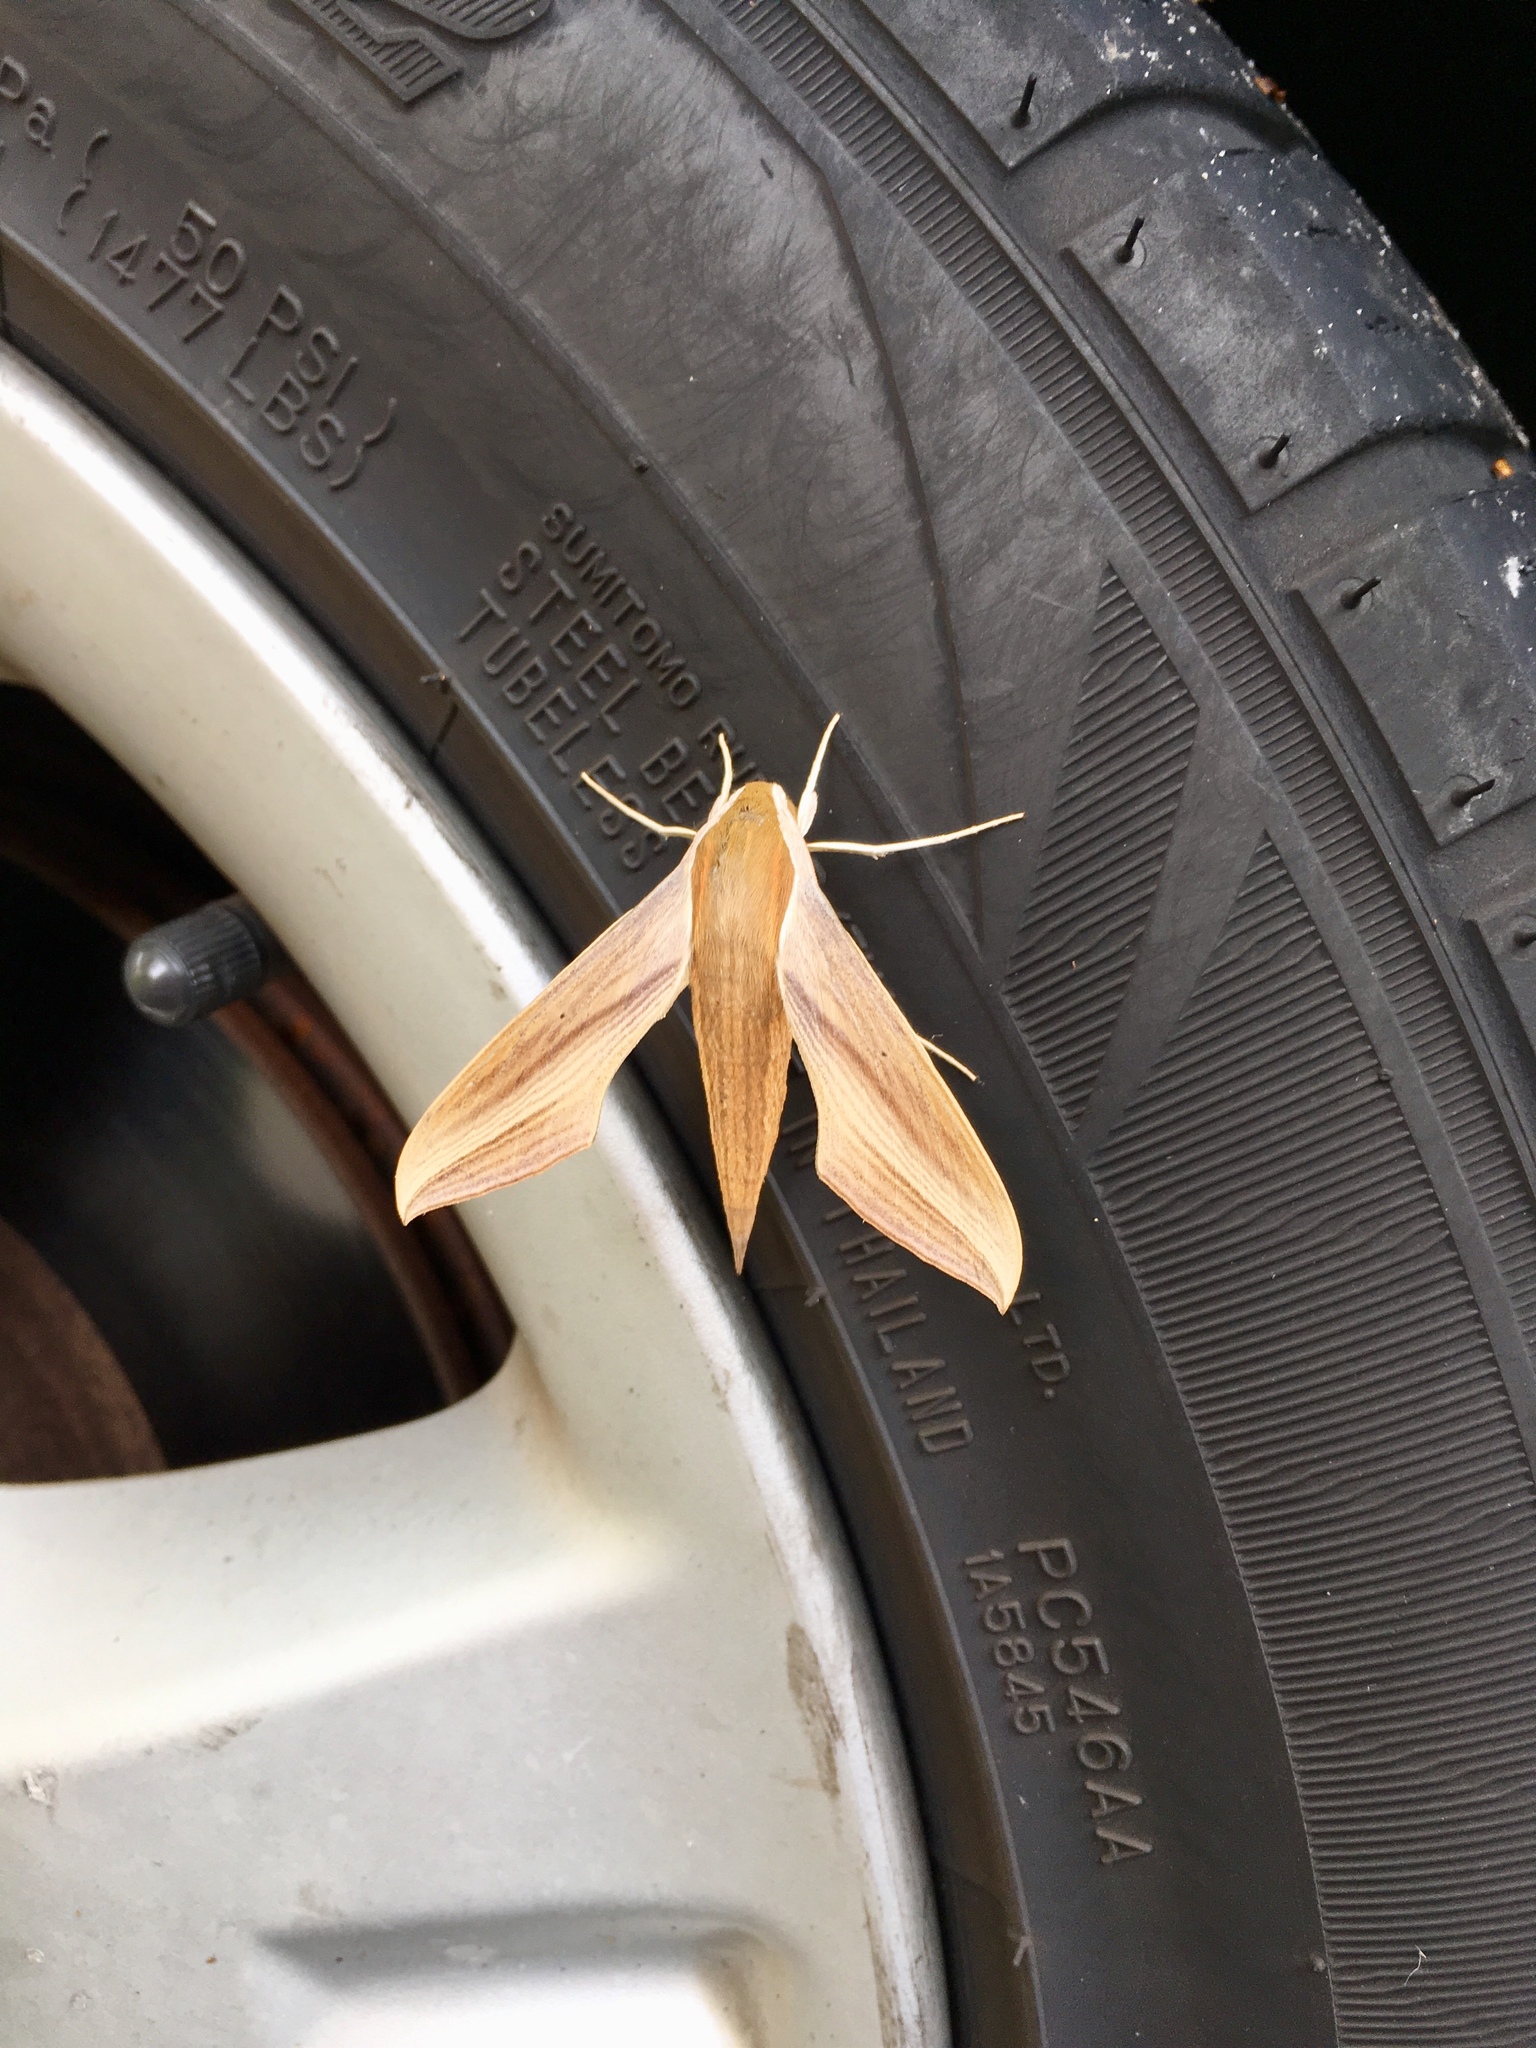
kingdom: Animalia
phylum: Arthropoda
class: Insecta
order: Lepidoptera
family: Sphingidae
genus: Xylophanes
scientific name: Xylophanes tersa
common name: Tersa sphinx
